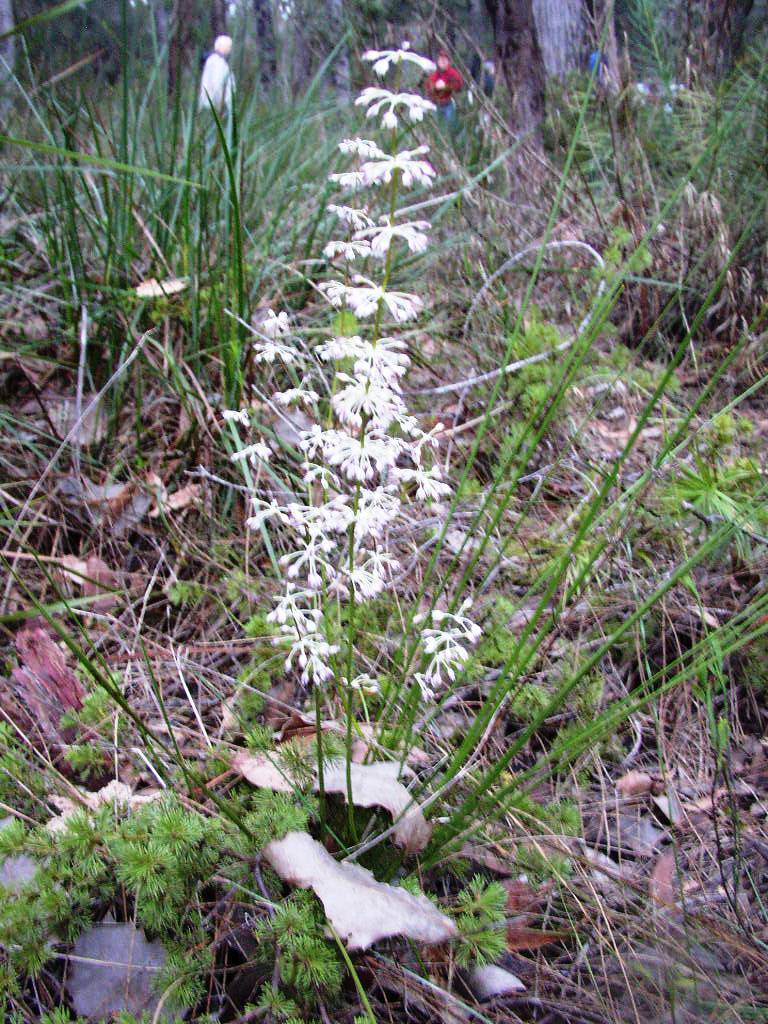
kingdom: Plantae
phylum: Tracheophyta
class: Liliopsida
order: Asparagales
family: Asparagaceae
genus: Lomandra
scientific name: Lomandra nigricans
